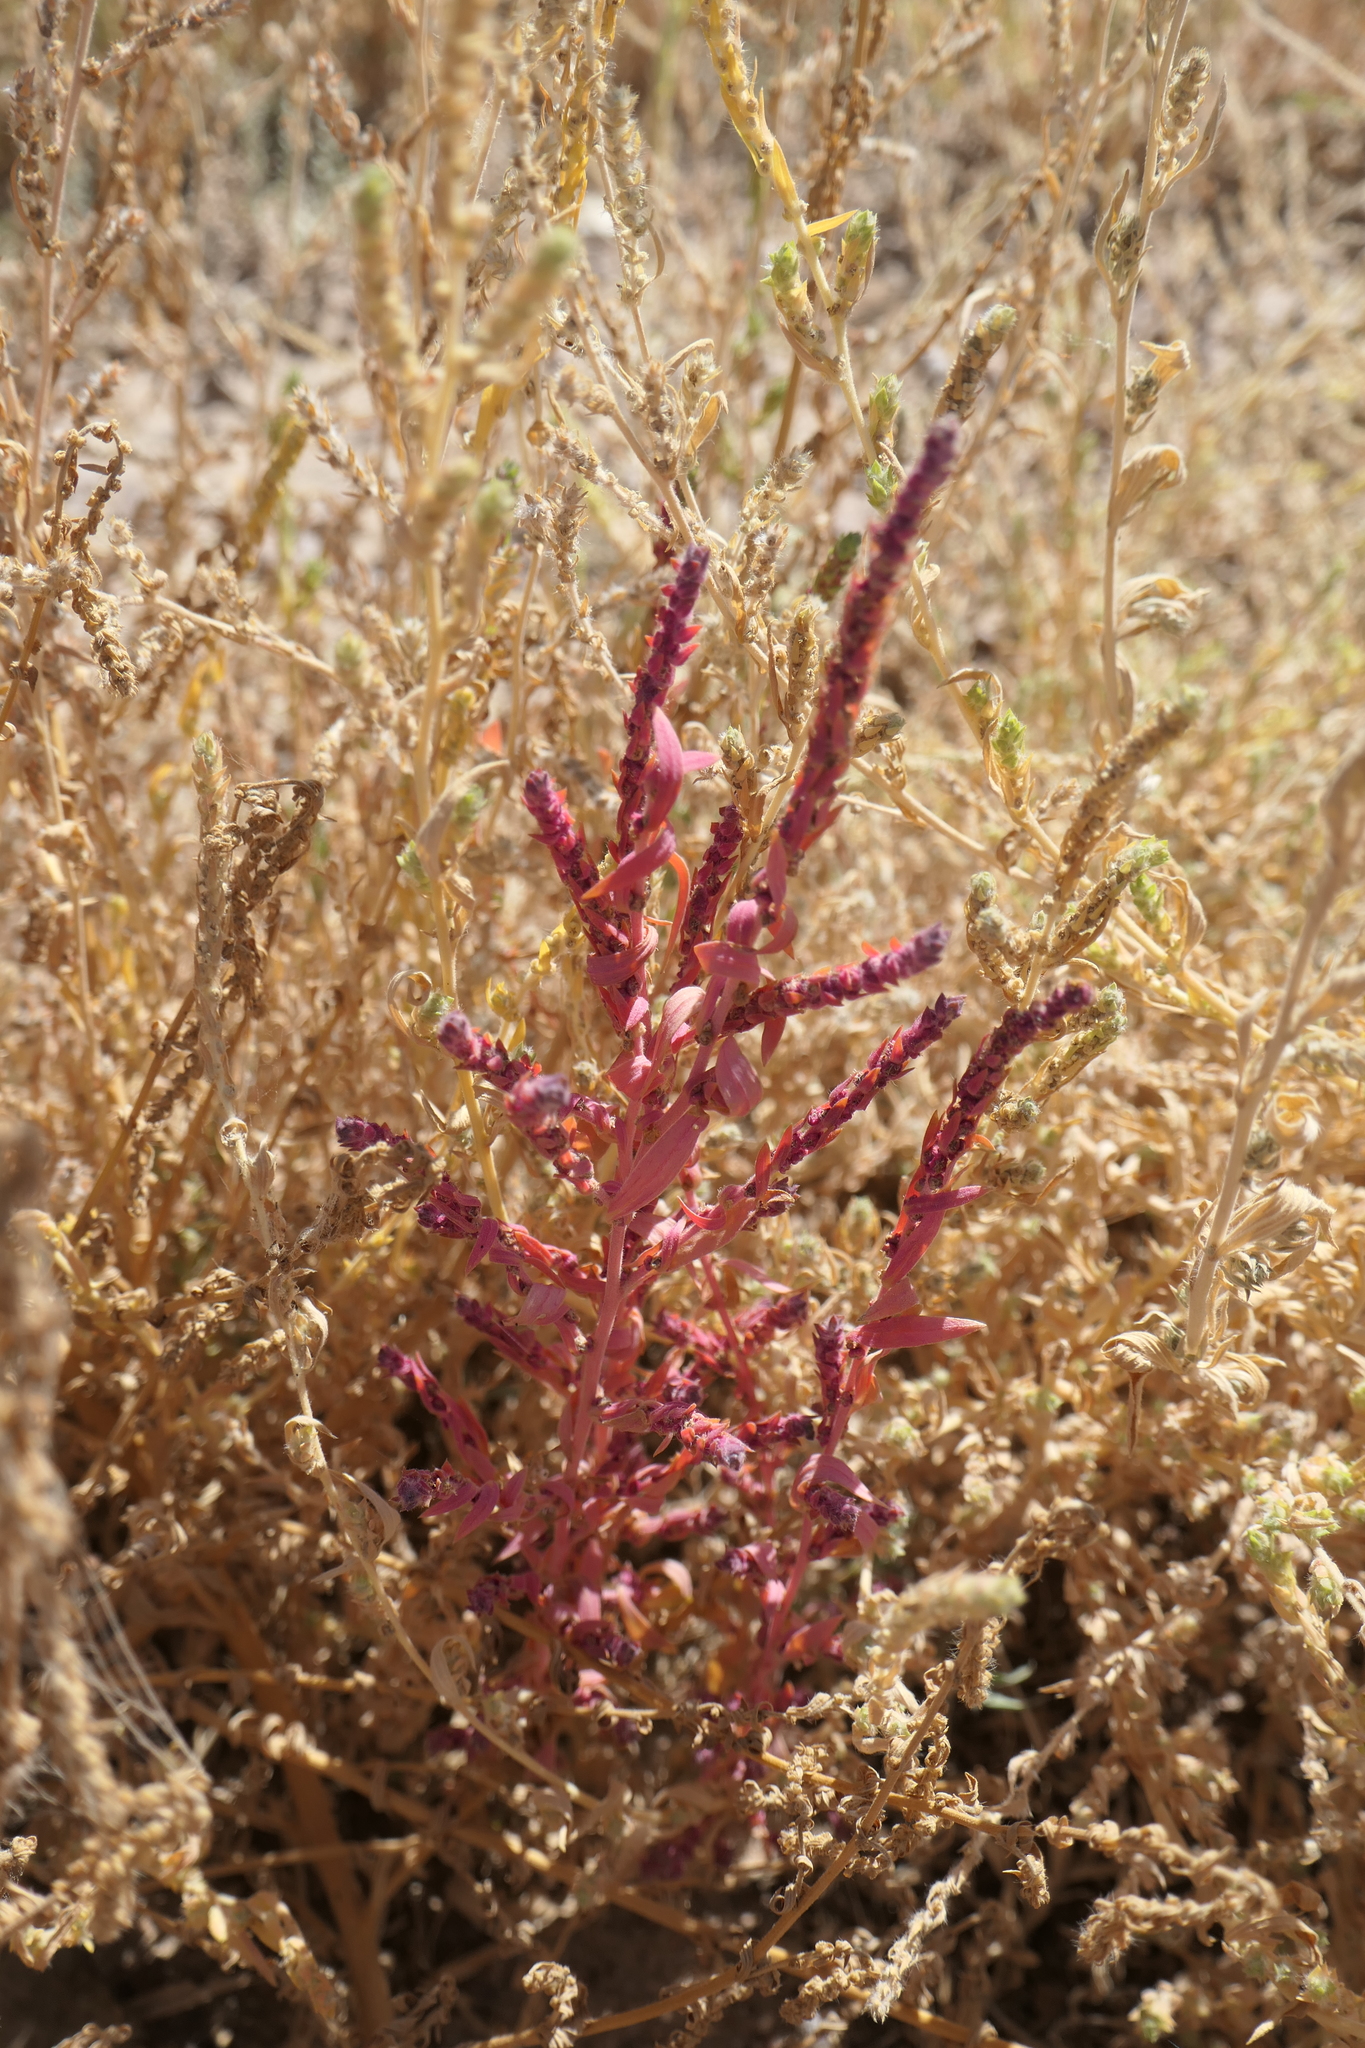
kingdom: Plantae
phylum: Tracheophyta
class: Magnoliopsida
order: Caryophyllales
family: Amaranthaceae
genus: Bassia
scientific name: Bassia scoparia
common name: Belvedere
